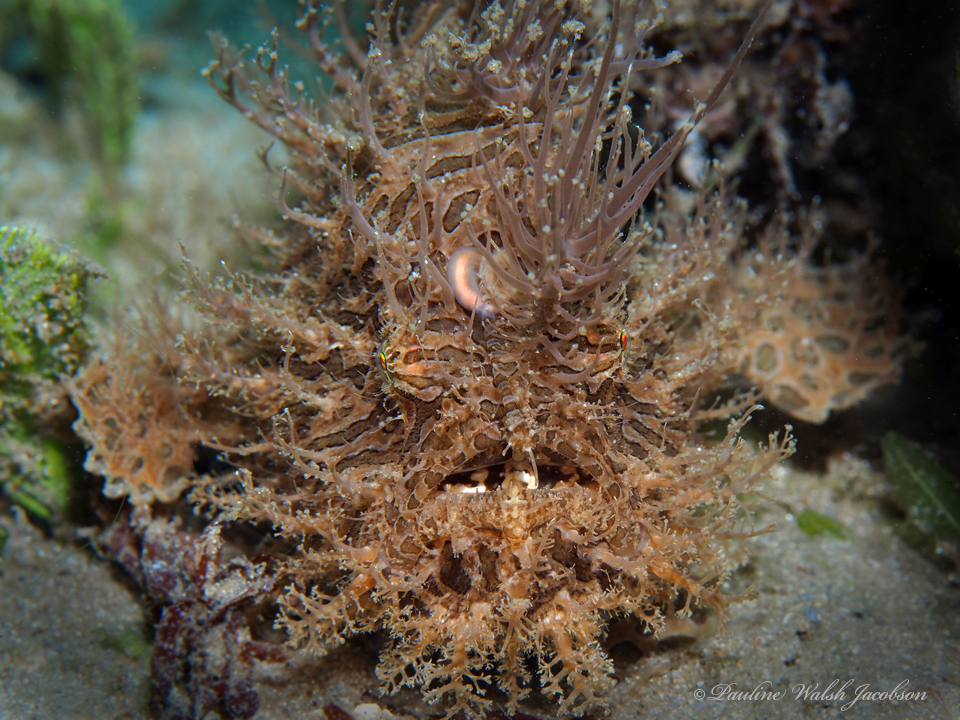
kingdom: Animalia
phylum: Chordata
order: Lophiiformes
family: Antennariidae
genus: Antennarius
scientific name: Antennarius striatus
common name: Striated frogfish
